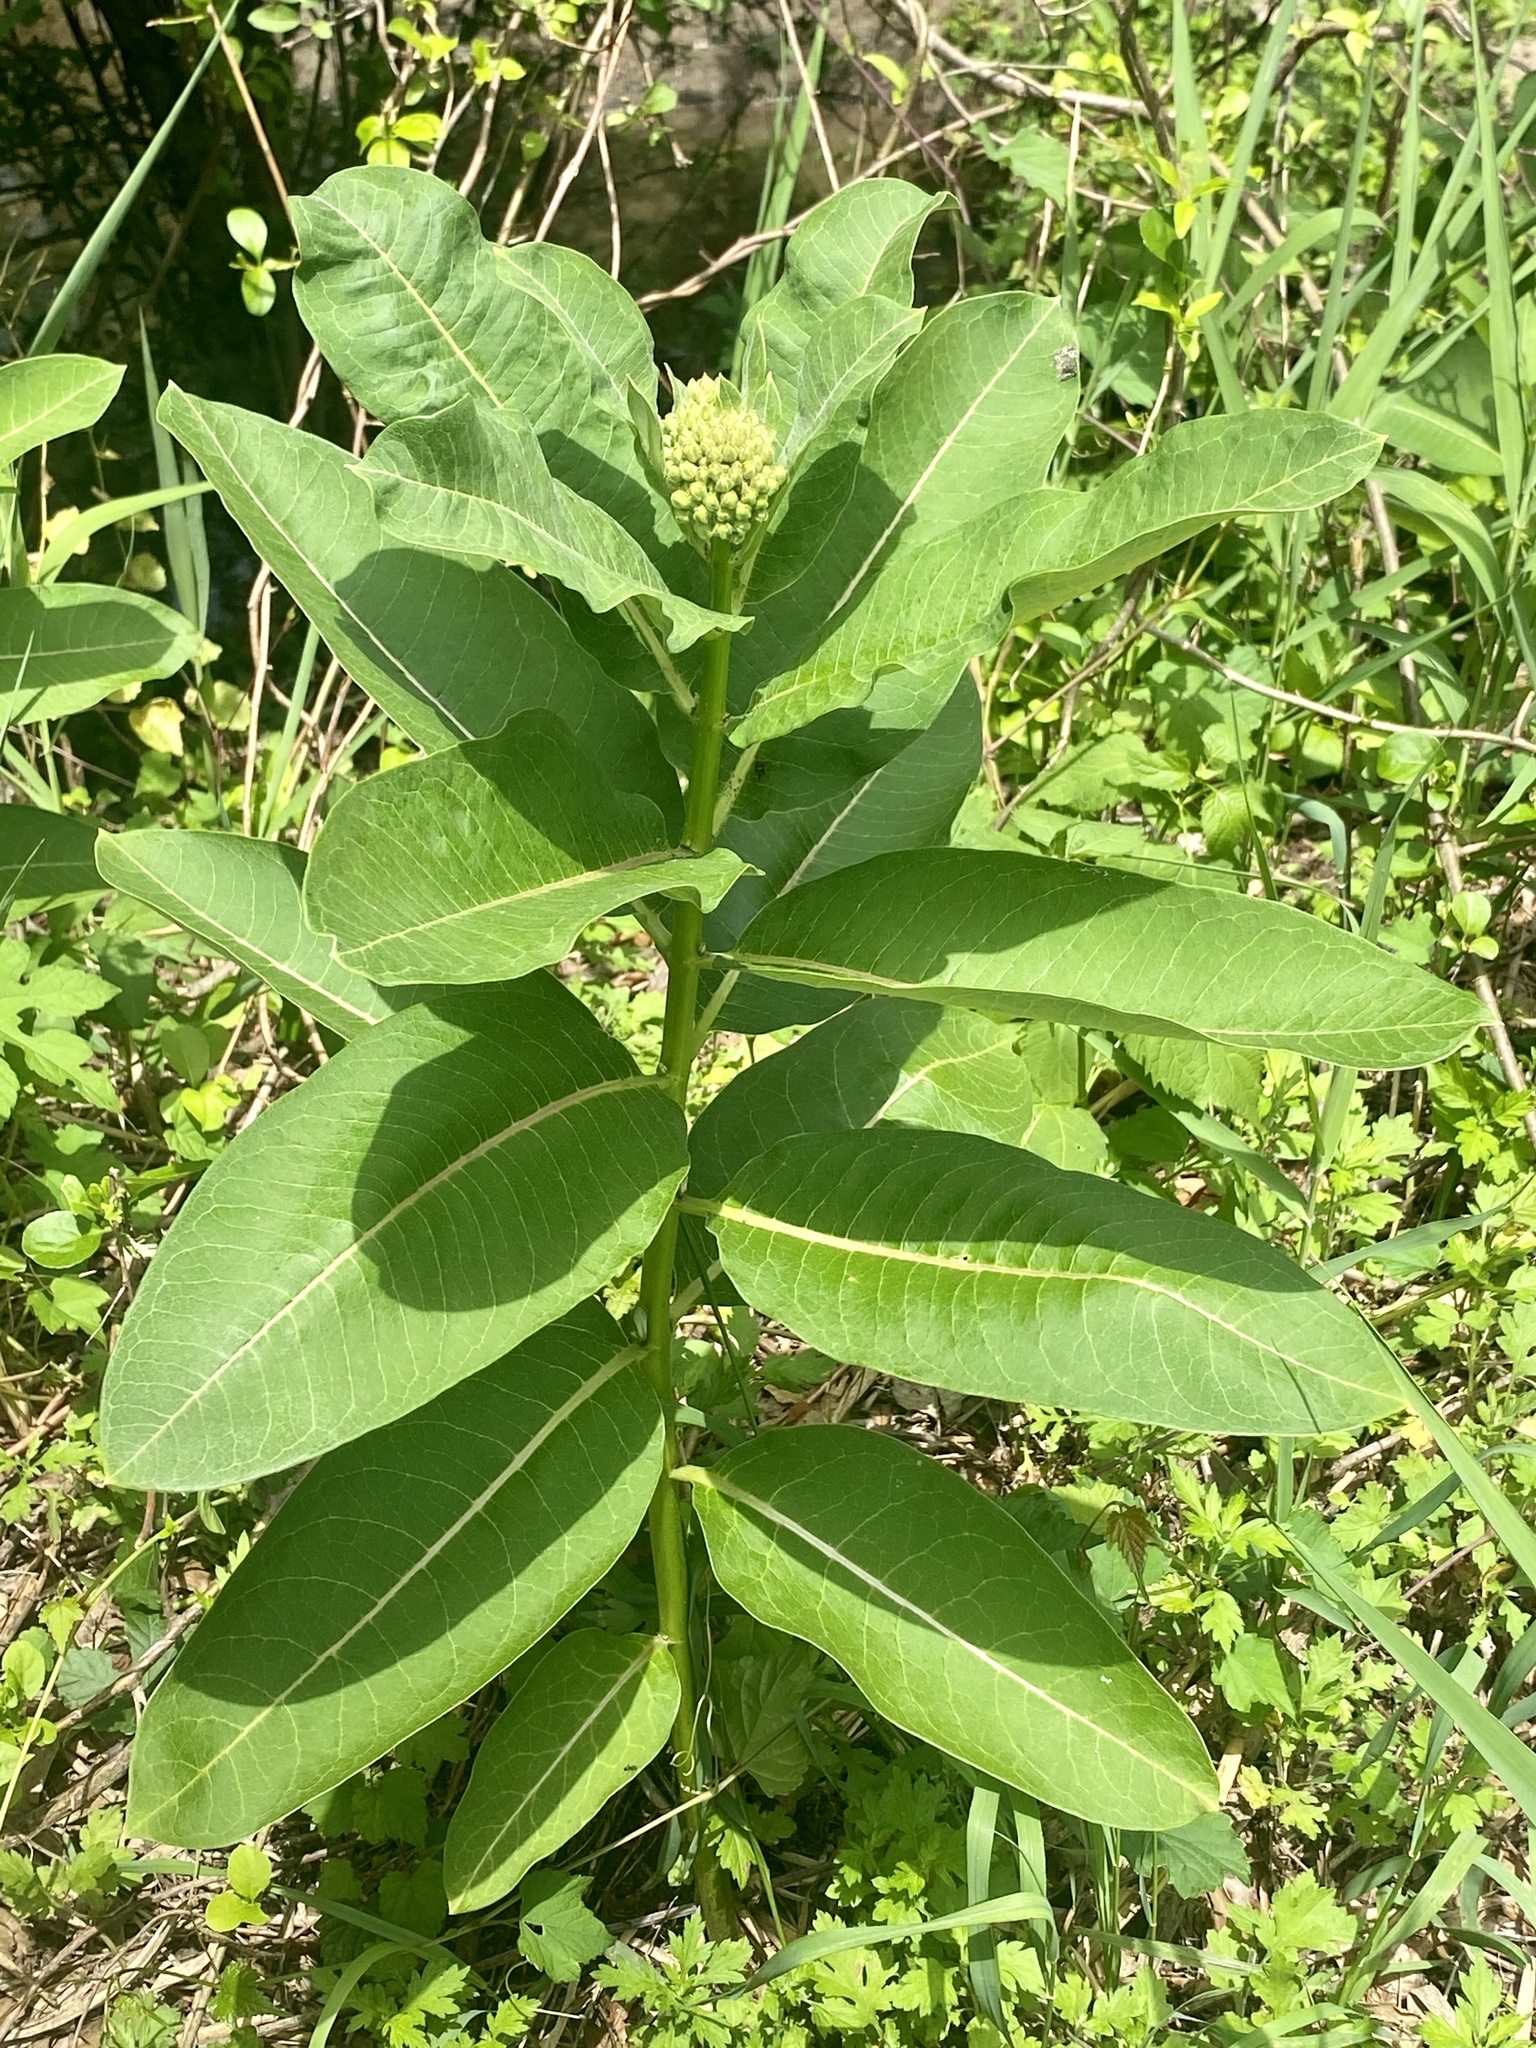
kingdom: Plantae
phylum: Tracheophyta
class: Magnoliopsida
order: Gentianales
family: Apocynaceae
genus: Asclepias
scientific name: Asclepias syriaca
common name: Common milkweed
